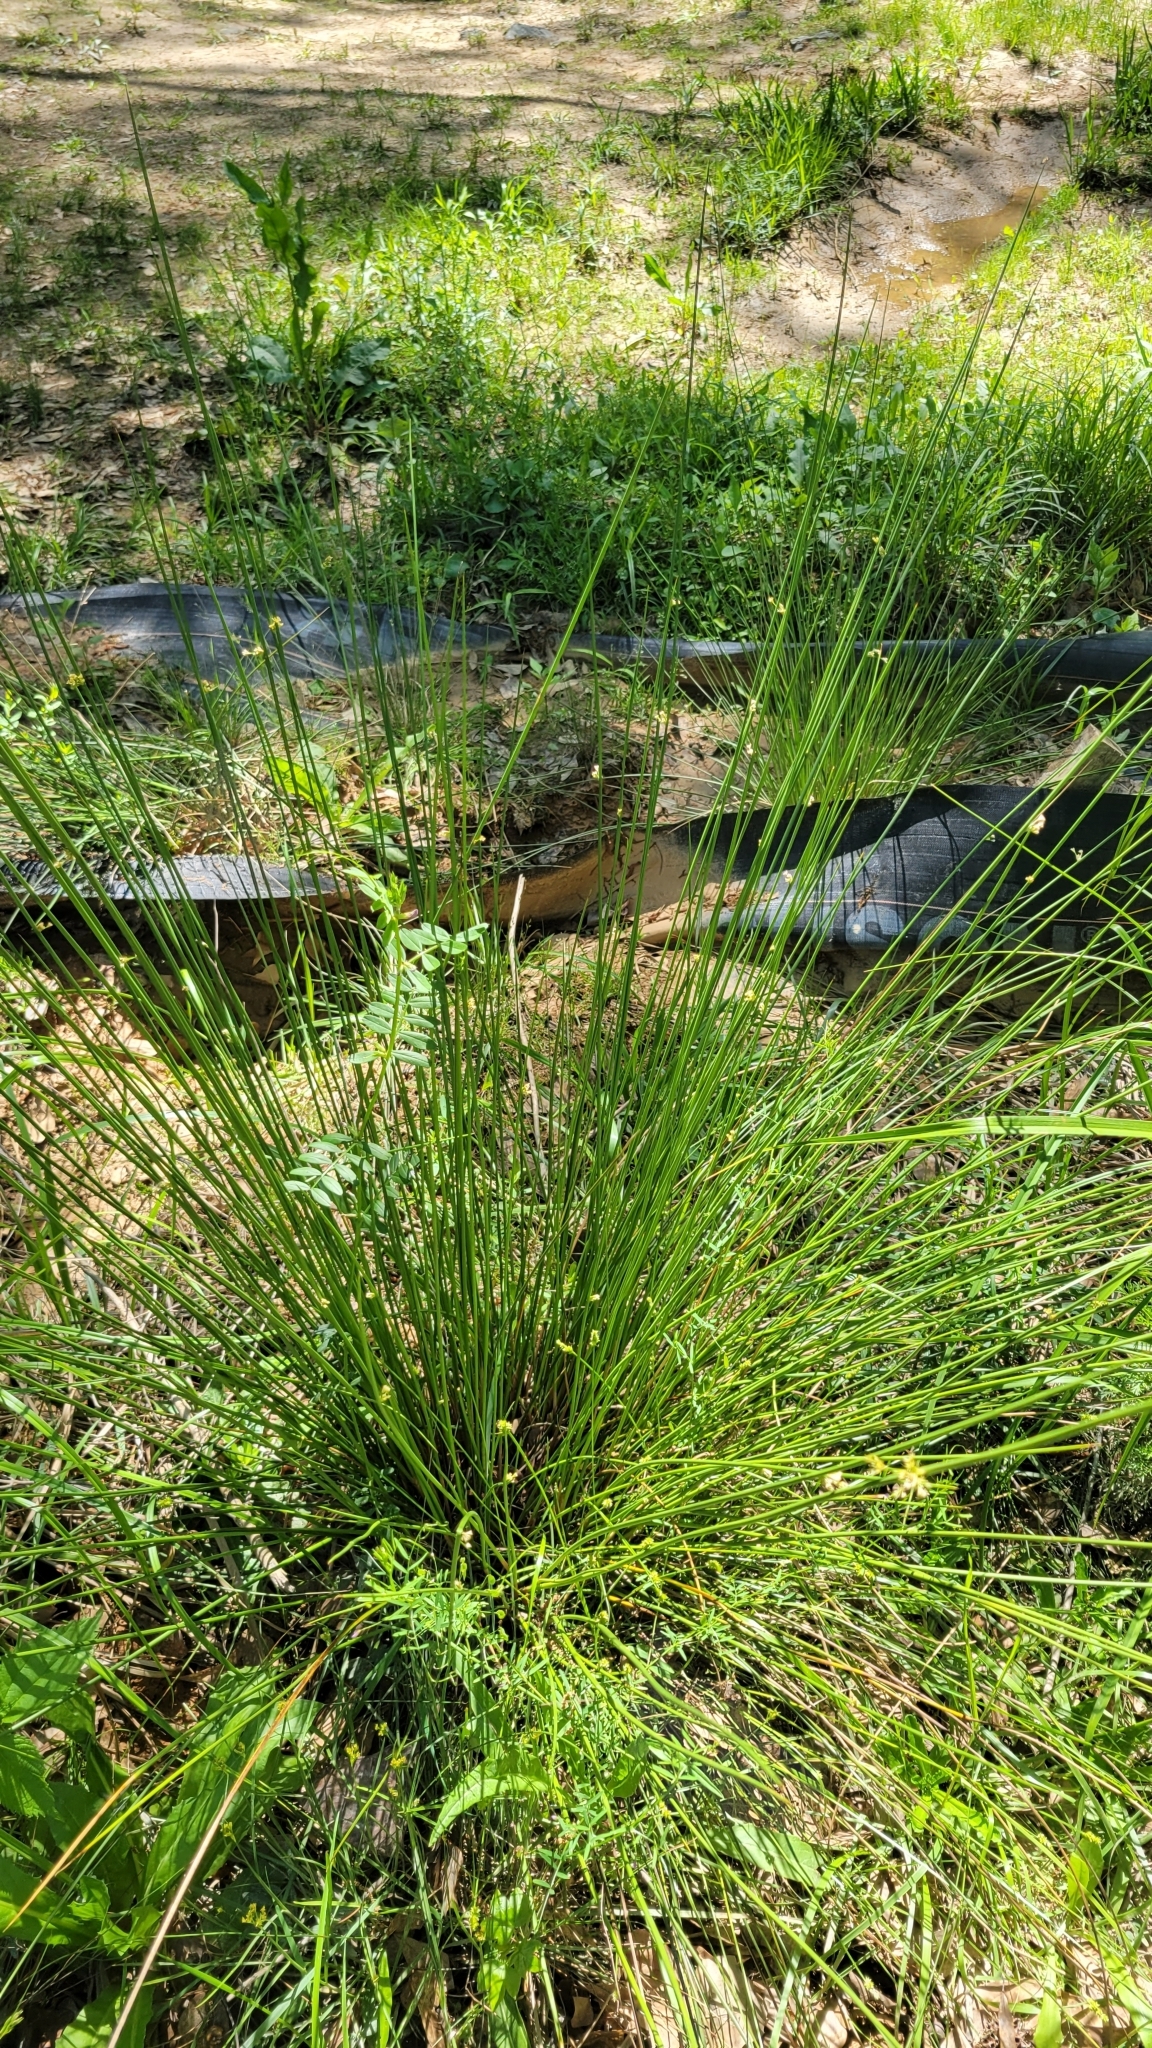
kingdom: Plantae
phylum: Tracheophyta
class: Liliopsida
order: Poales
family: Juncaceae
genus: Juncus
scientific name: Juncus effusus
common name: Soft rush
